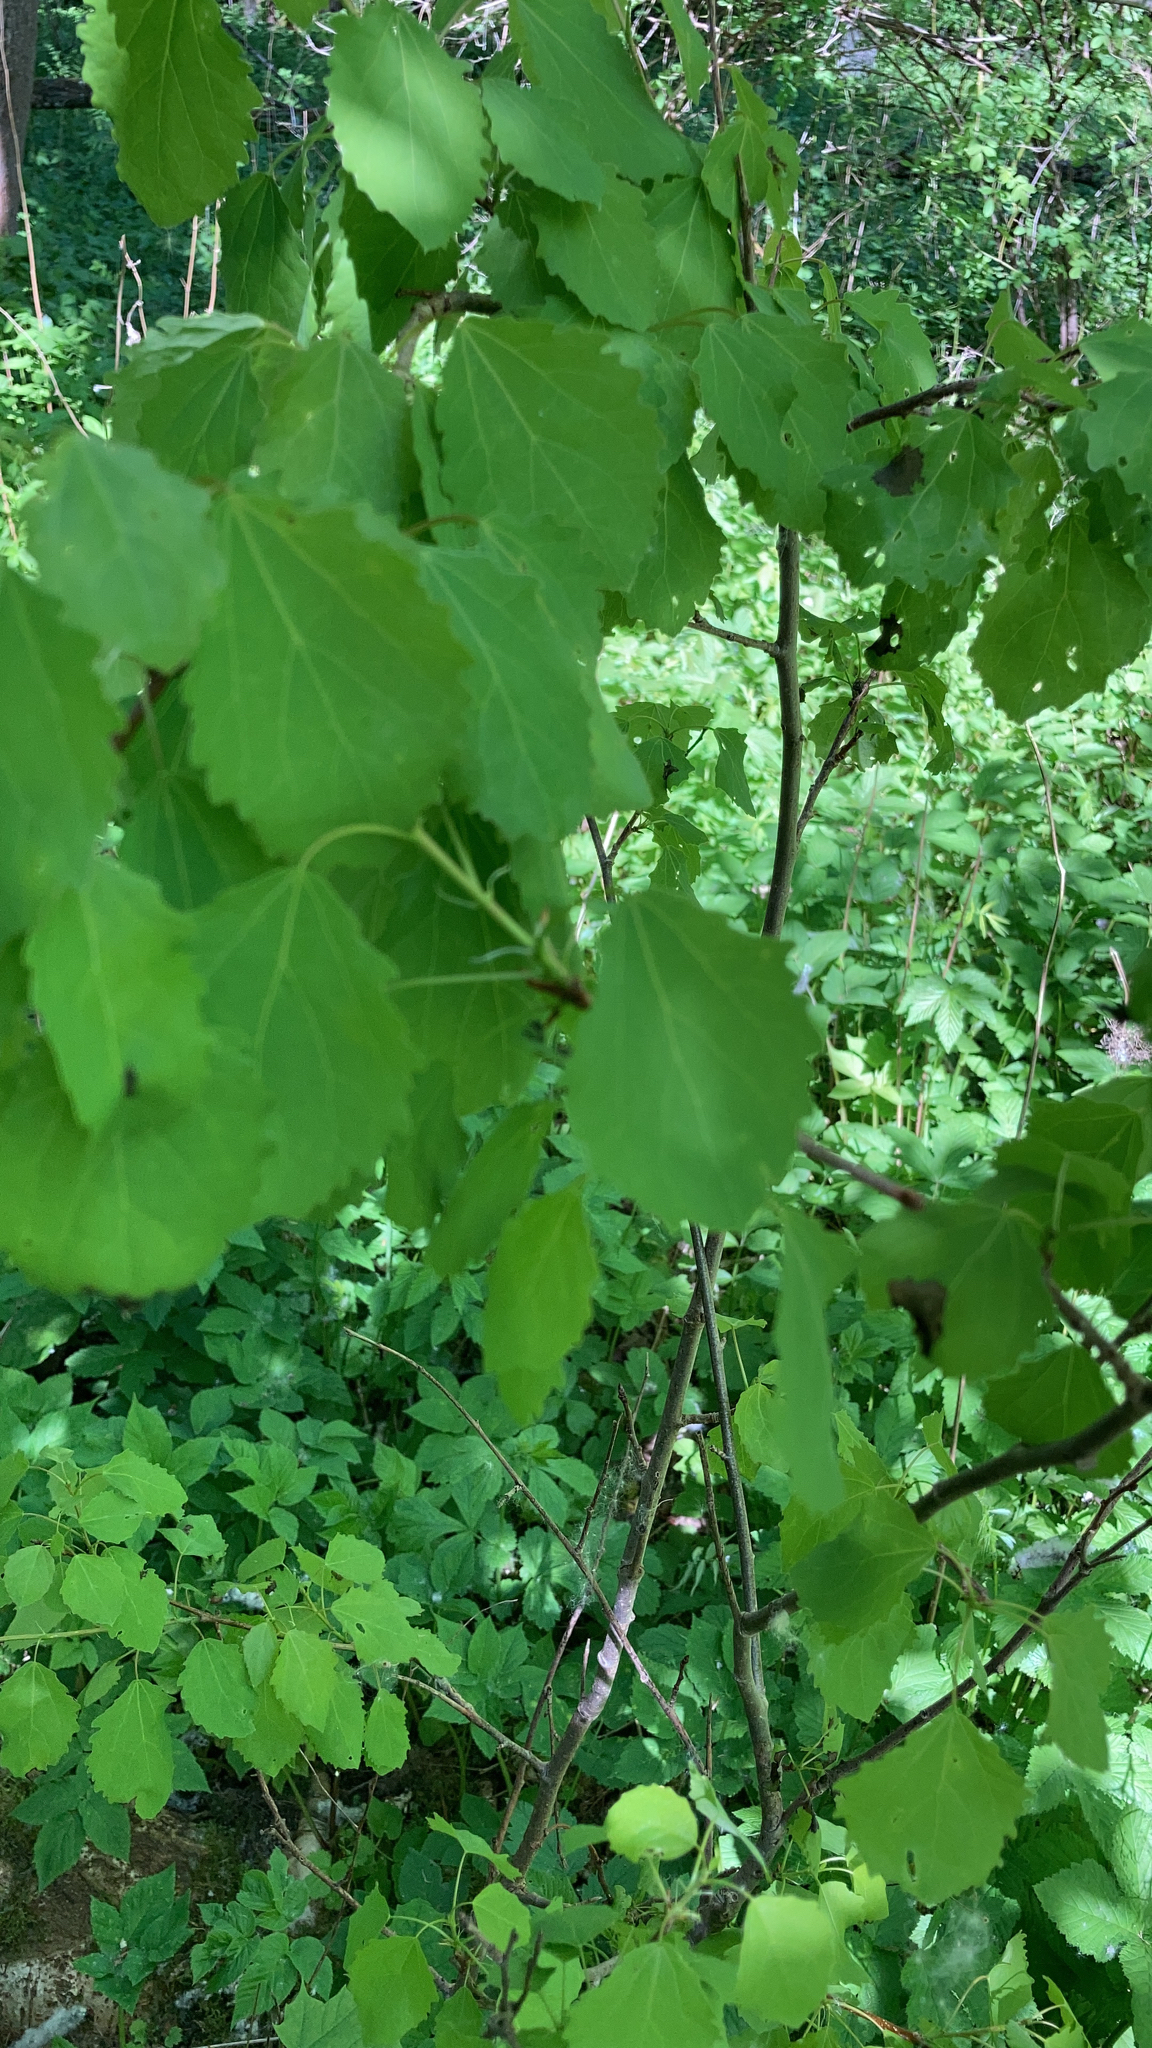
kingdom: Plantae
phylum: Tracheophyta
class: Magnoliopsida
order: Malpighiales
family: Salicaceae
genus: Populus
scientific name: Populus tremula
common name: European aspen
